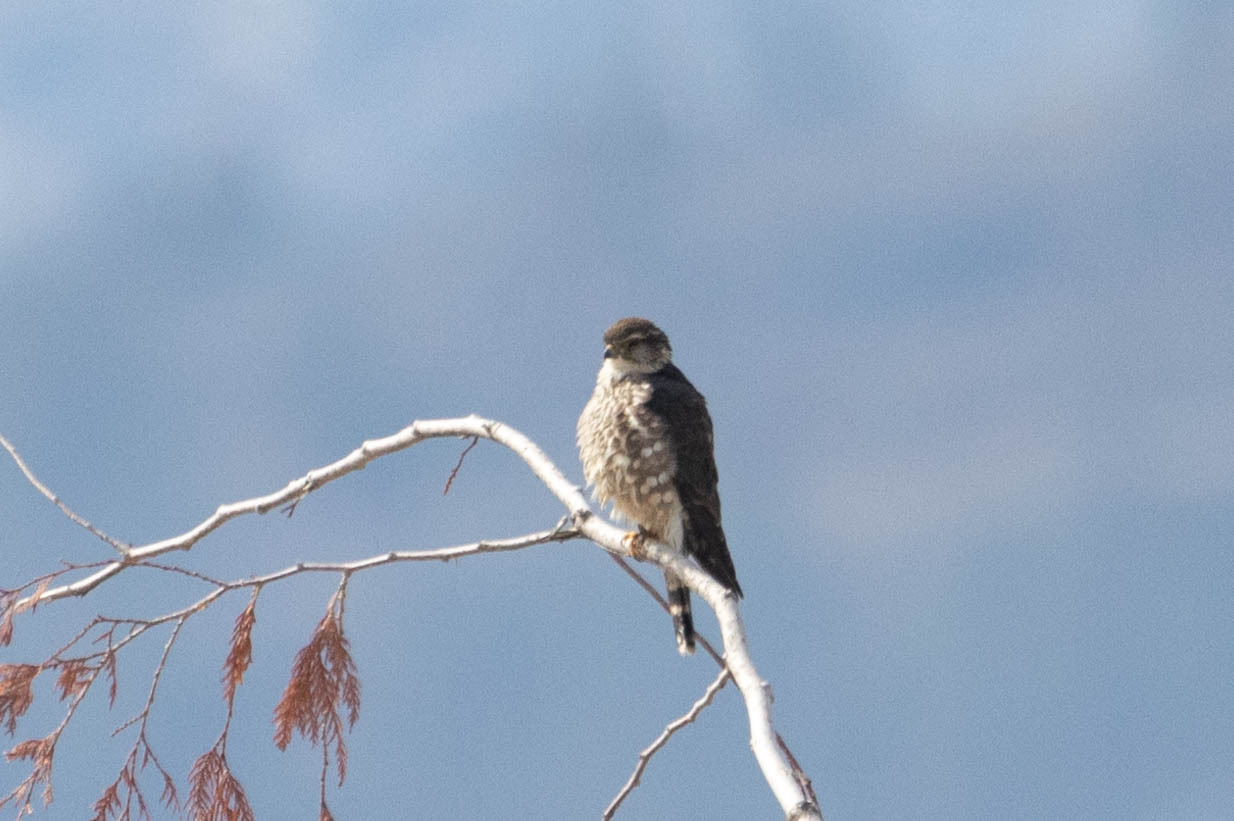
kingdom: Animalia
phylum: Chordata
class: Aves
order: Falconiformes
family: Falconidae
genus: Falco
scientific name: Falco columbarius
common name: Merlin
